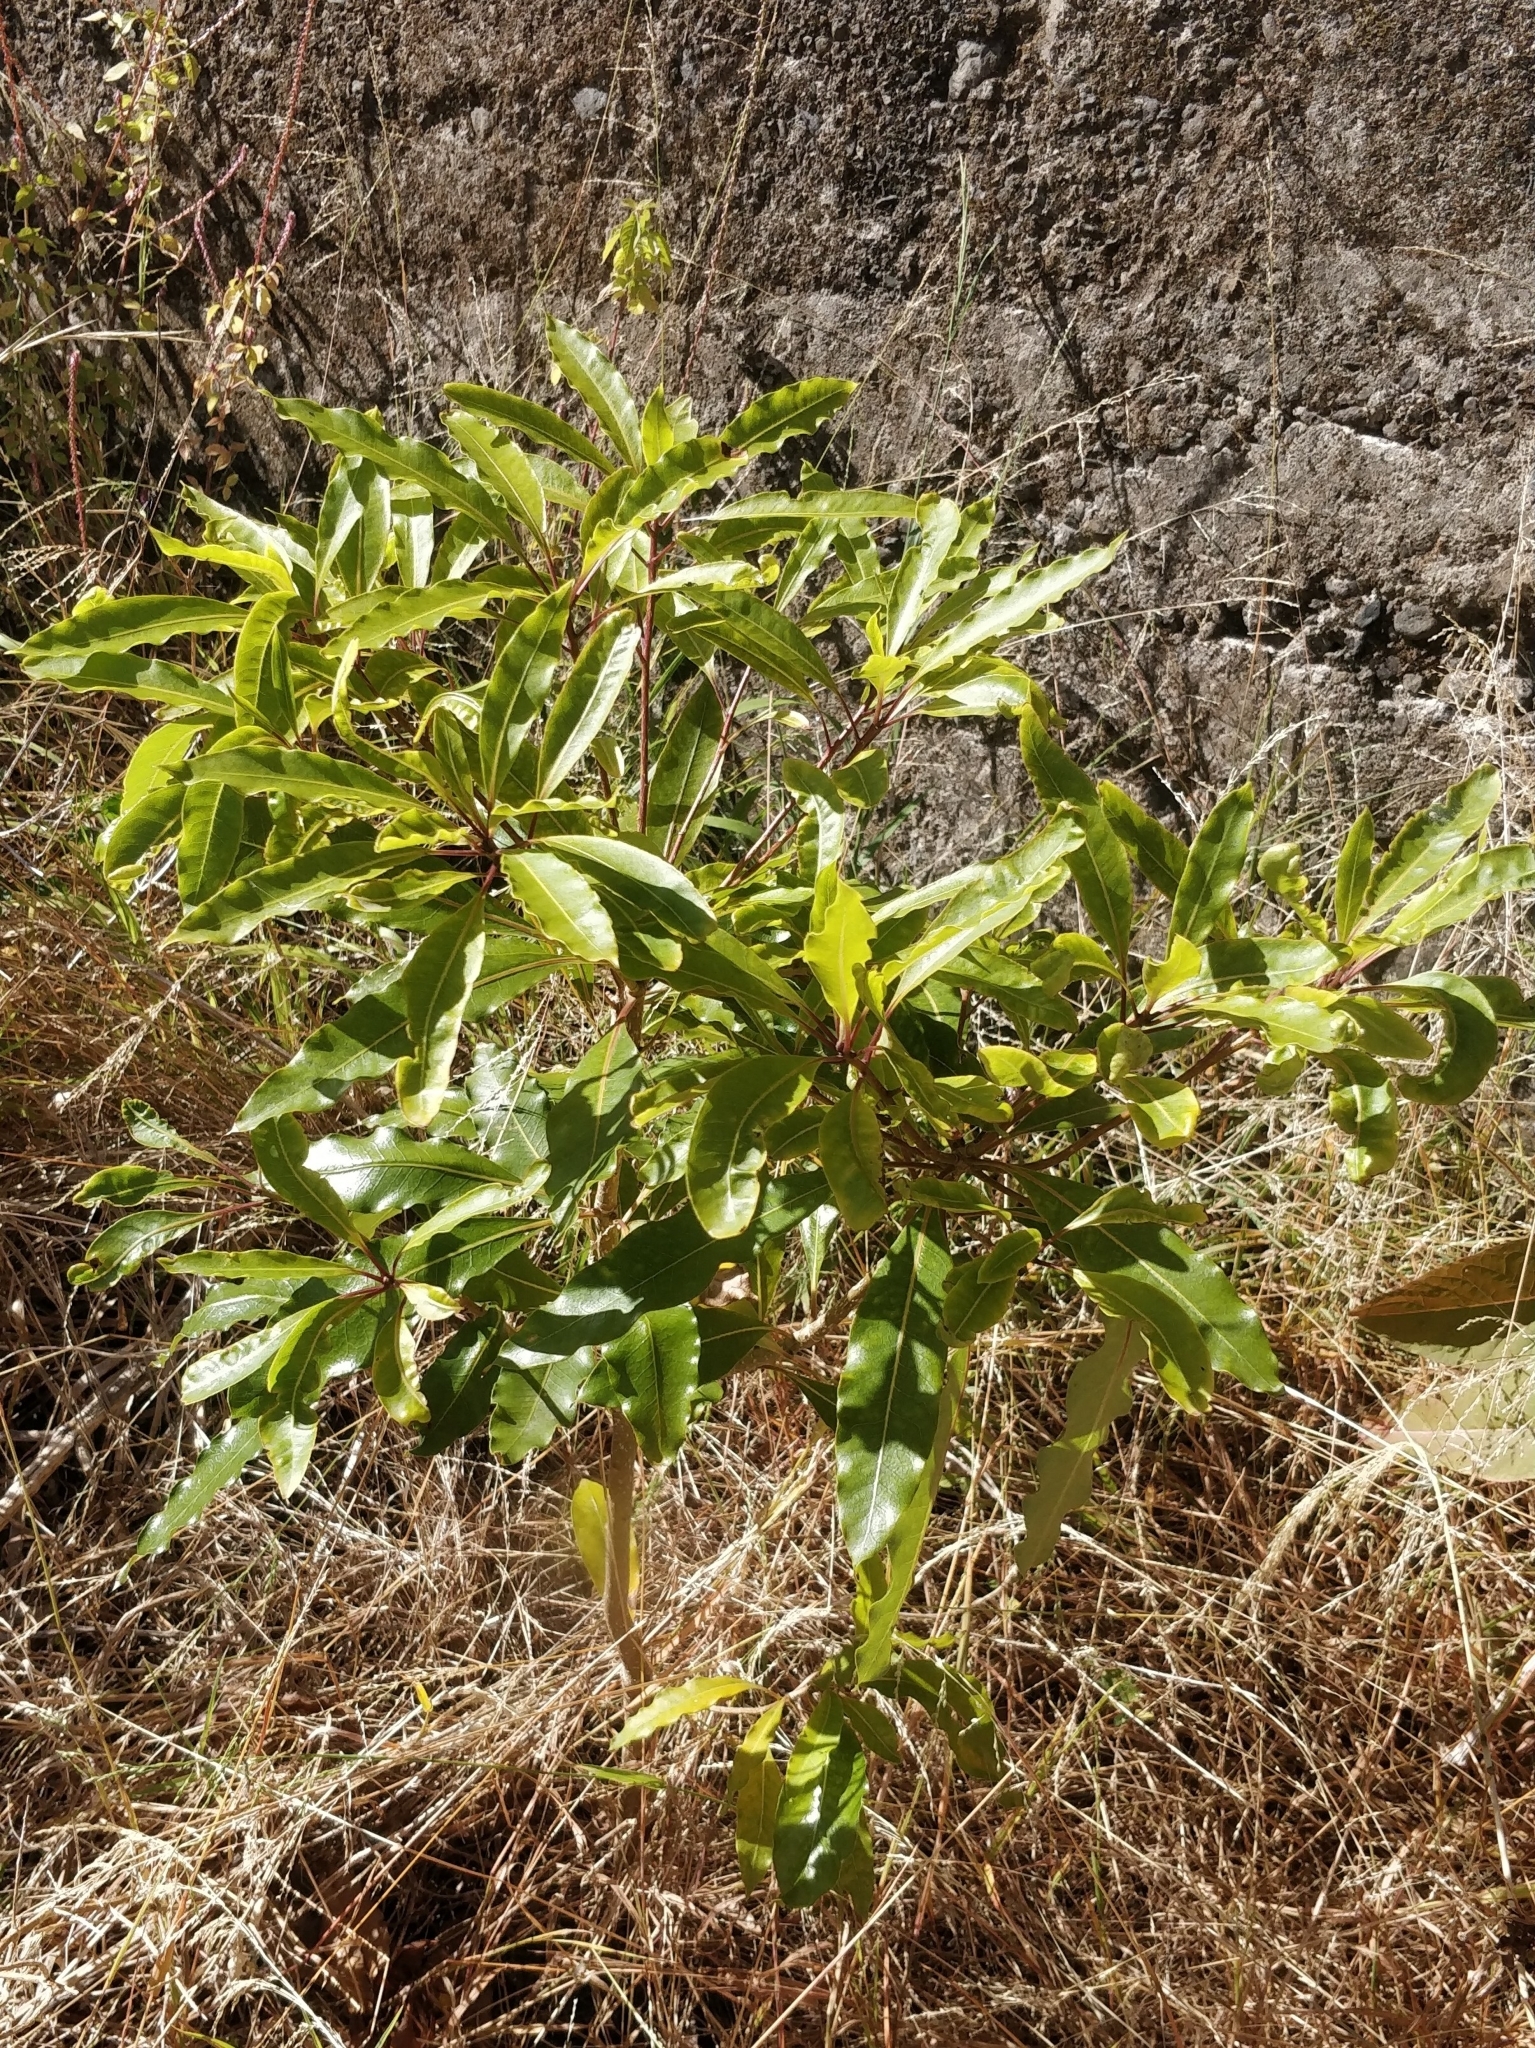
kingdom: Plantae
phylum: Tracheophyta
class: Magnoliopsida
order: Apiales
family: Pittosporaceae
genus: Pittosporum
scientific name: Pittosporum undulatum
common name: Australian cheesewood
